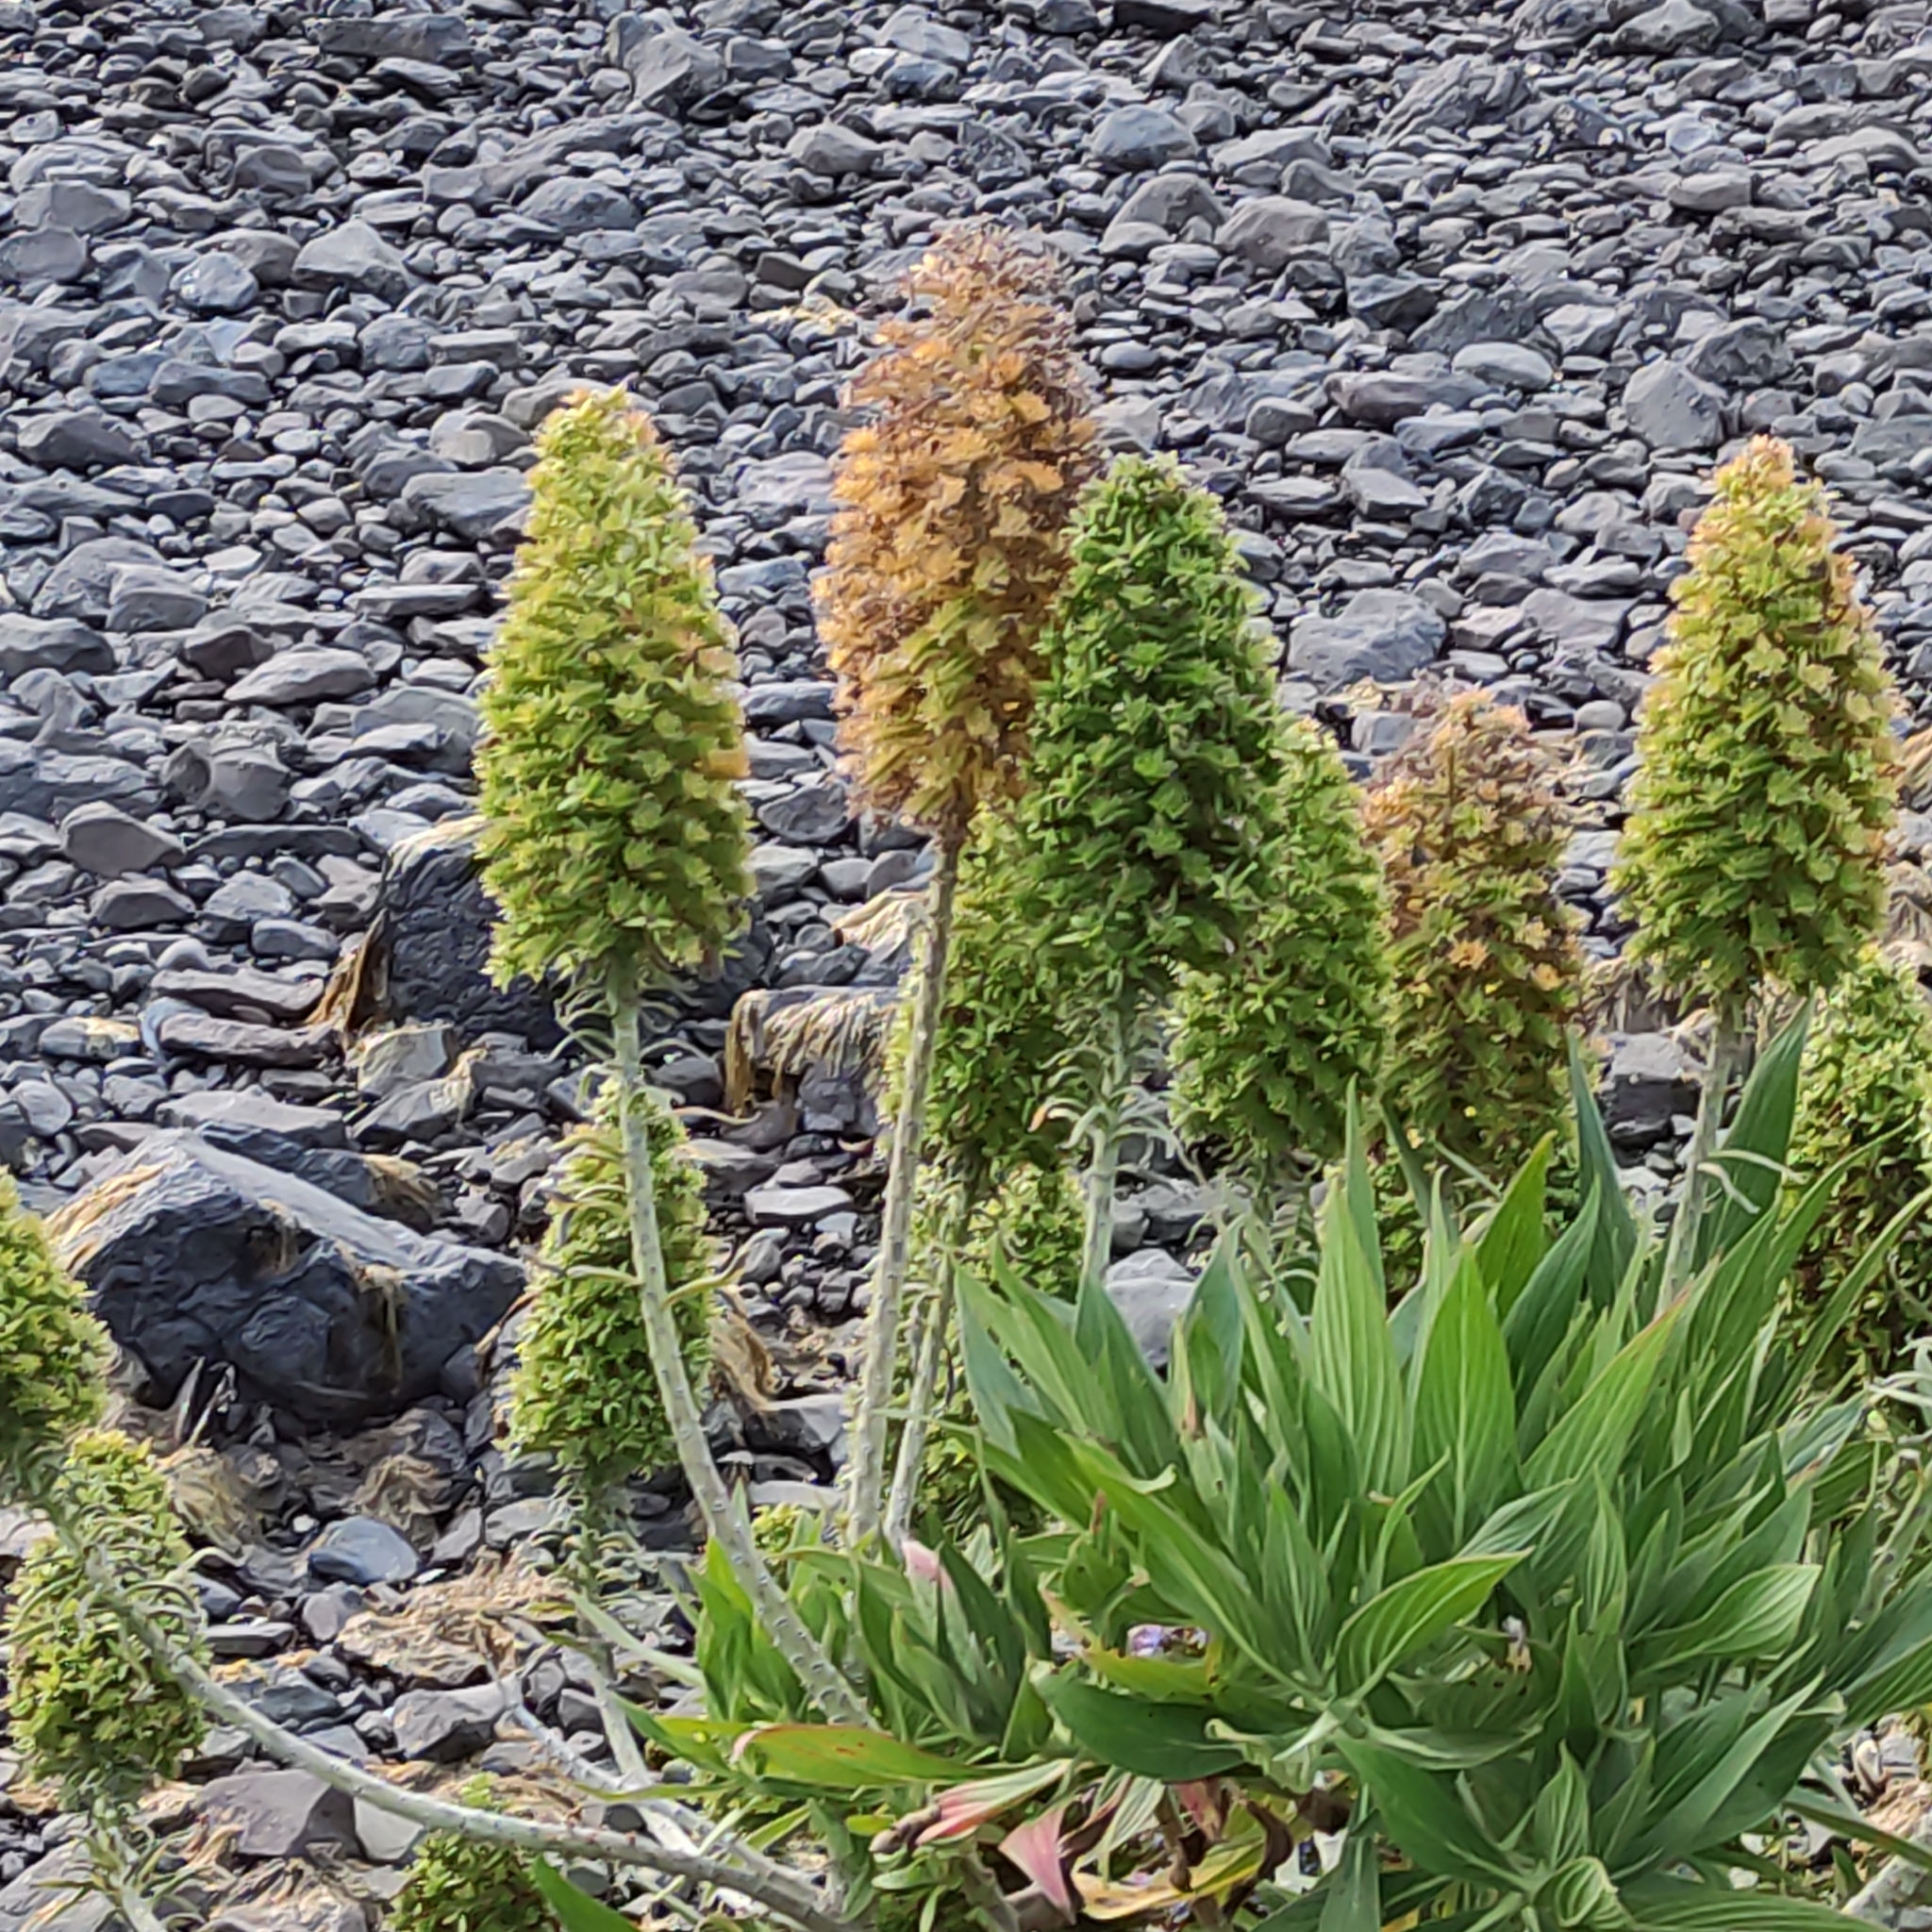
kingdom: Plantae
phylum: Tracheophyta
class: Magnoliopsida
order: Boraginales
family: Boraginaceae
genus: Echium
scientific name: Echium candicans
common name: Pride of madeira
